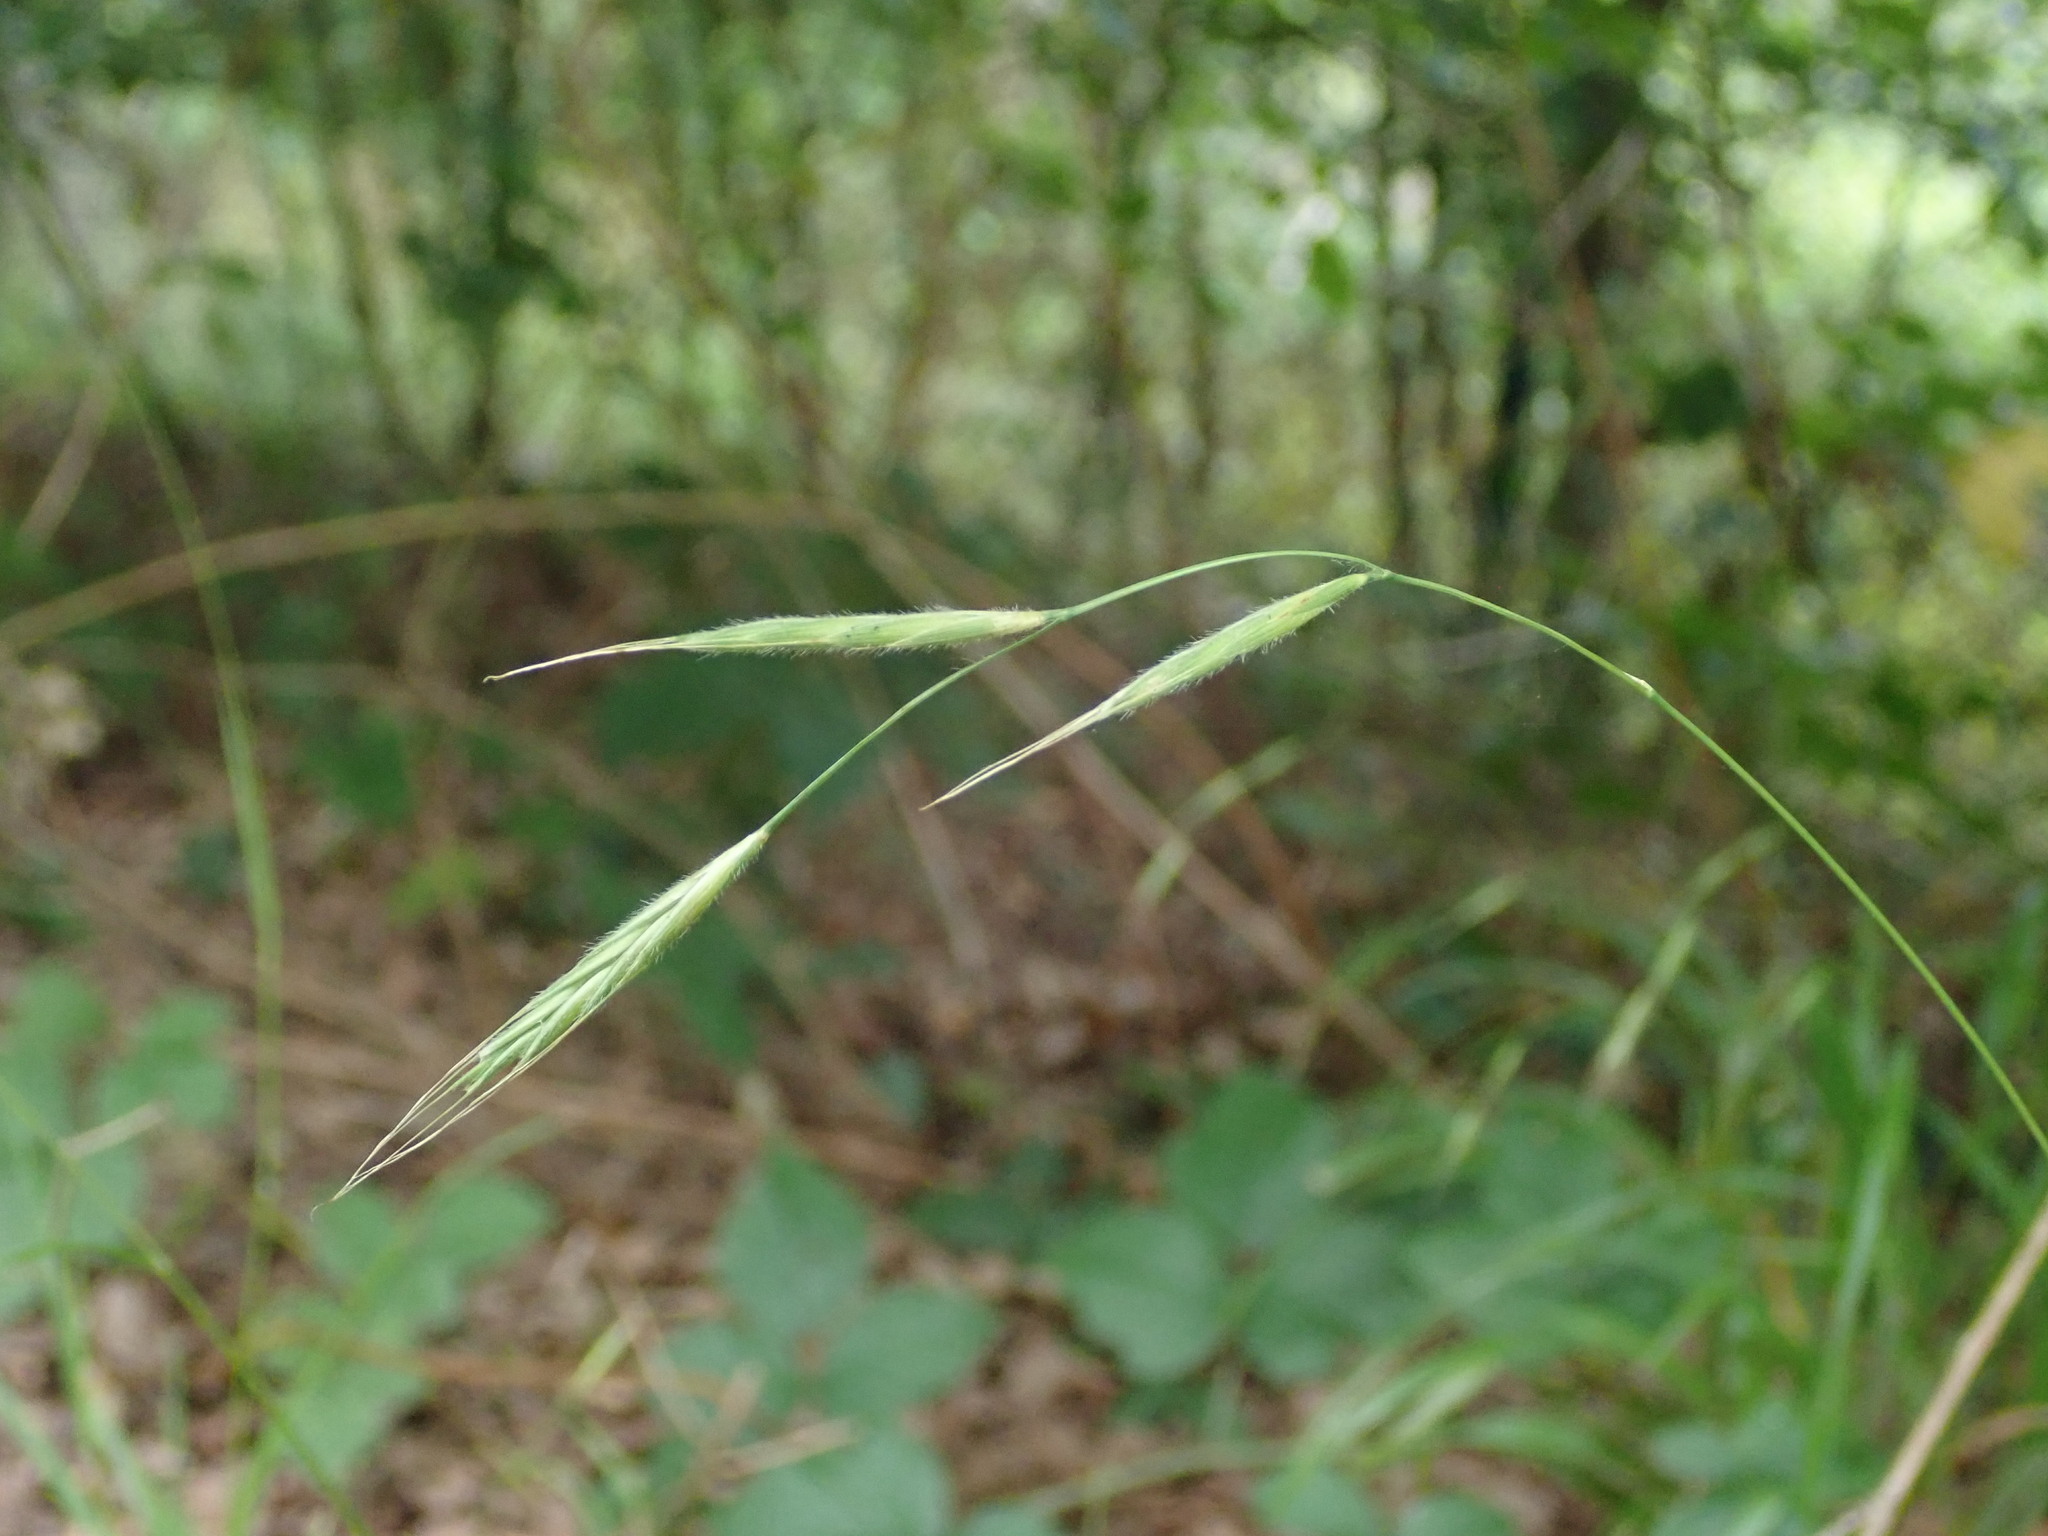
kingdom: Plantae
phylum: Tracheophyta
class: Liliopsida
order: Poales
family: Poaceae
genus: Brachypodium
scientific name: Brachypodium sylvaticum
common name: False-brome
